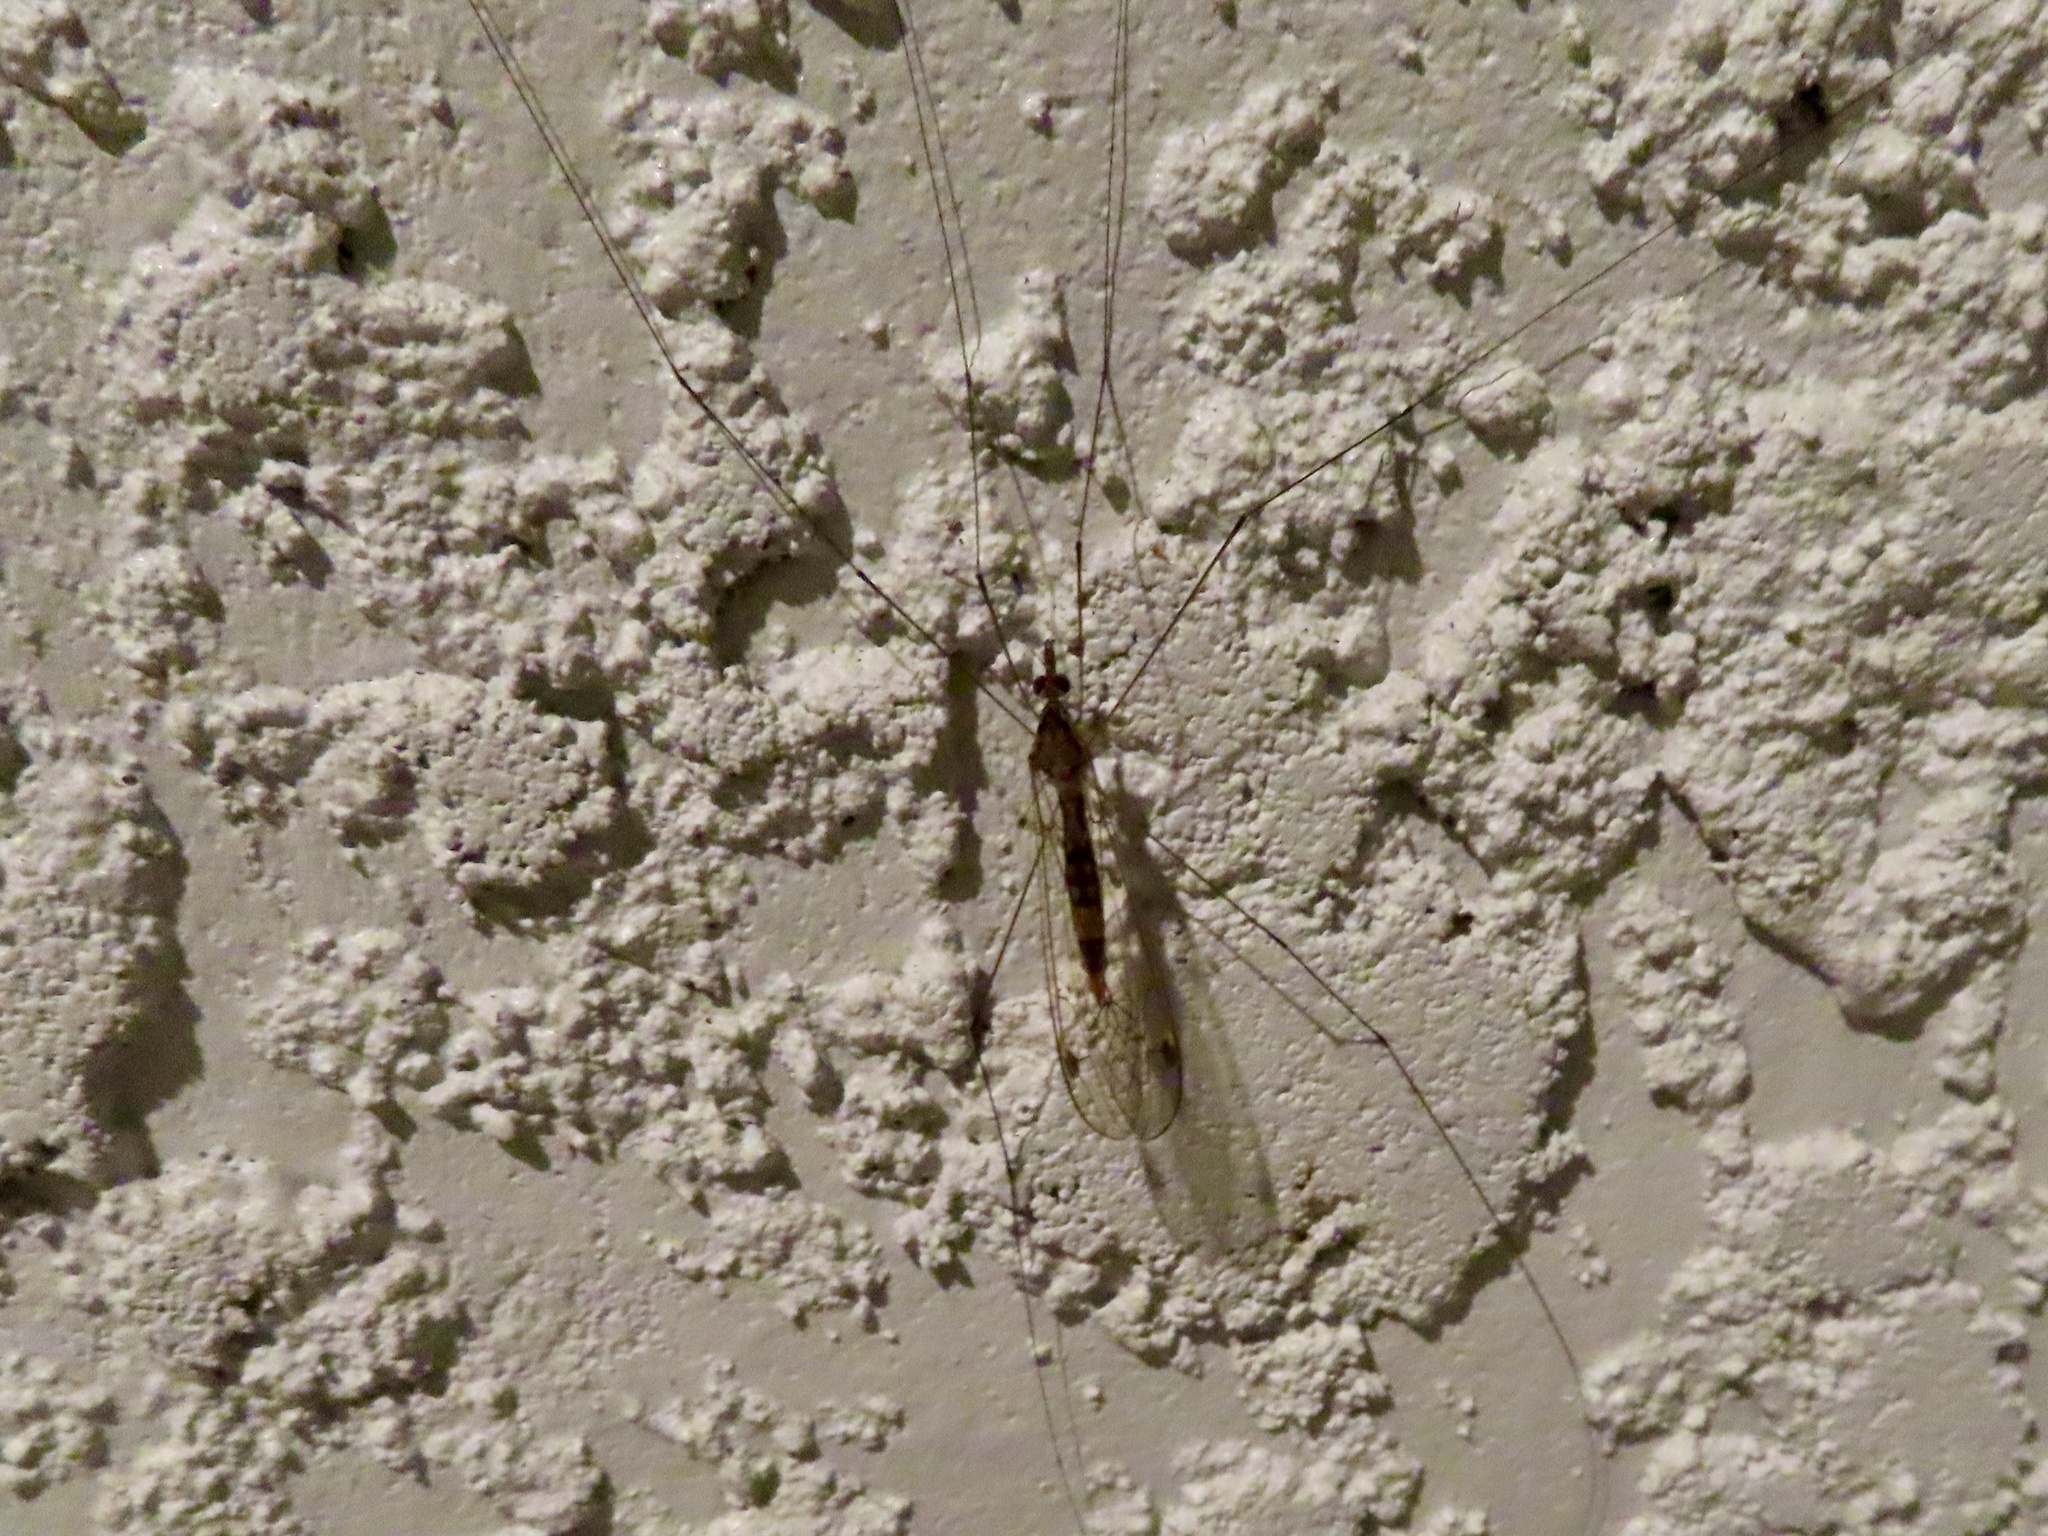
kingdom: Animalia
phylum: Arthropoda
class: Insecta
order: Diptera
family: Tipulidae
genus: Maekistocera
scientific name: Maekistocera longipennis
